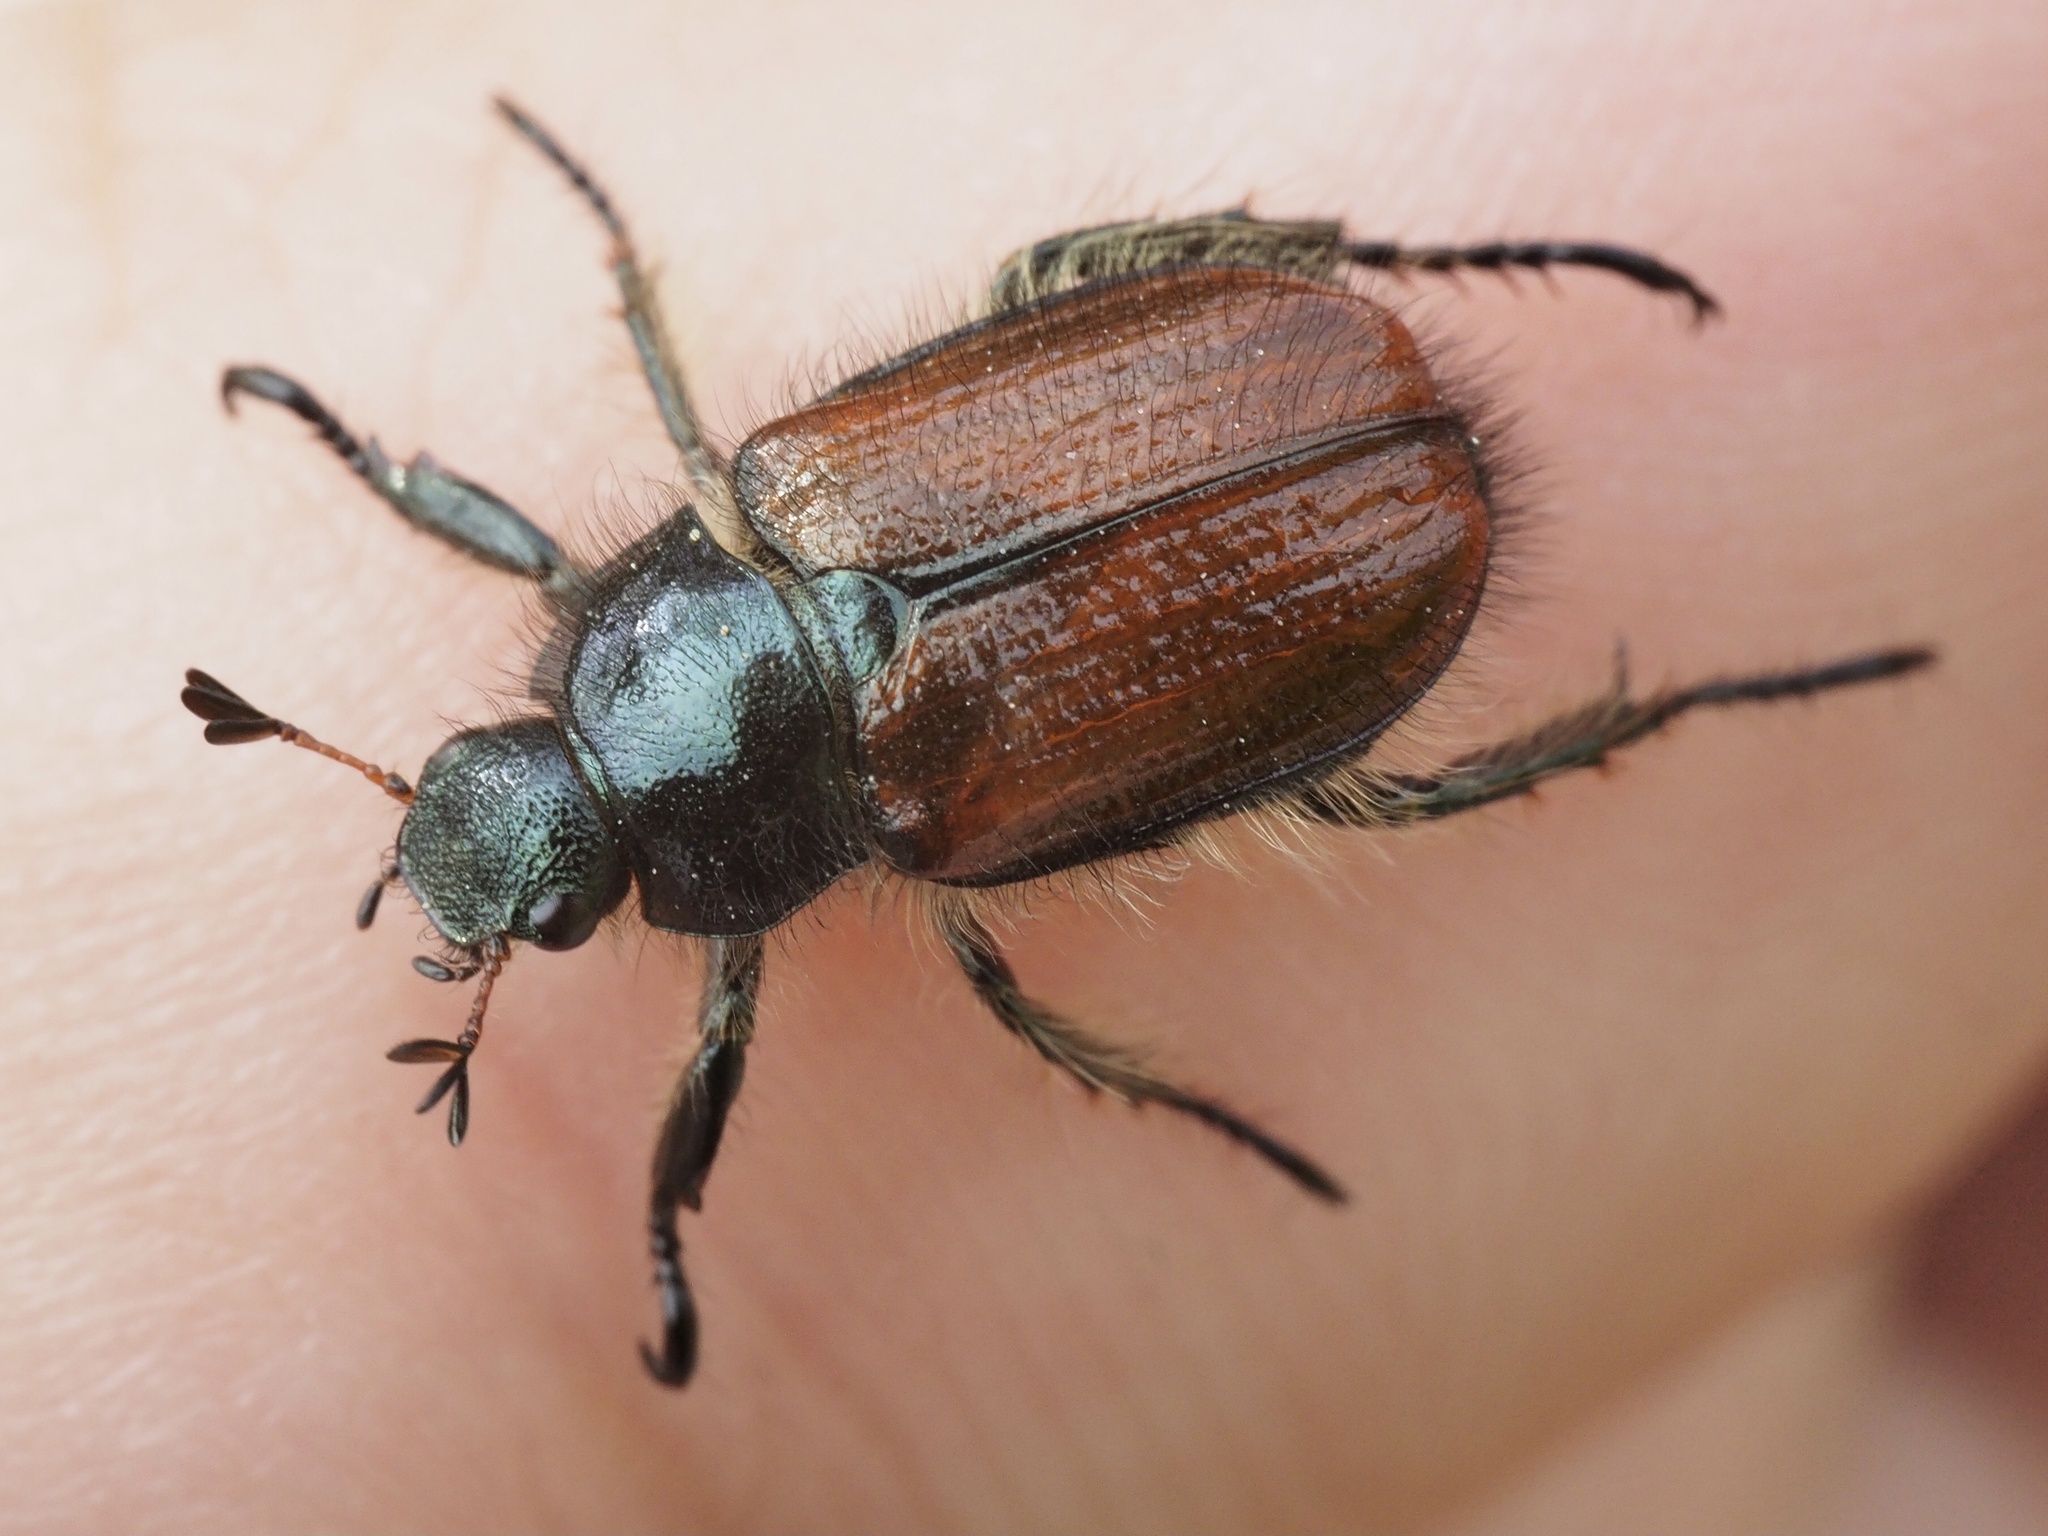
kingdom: Animalia
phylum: Arthropoda
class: Insecta
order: Coleoptera
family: Scarabaeidae
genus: Phyllopertha
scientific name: Phyllopertha horticola
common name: Garden chafer
